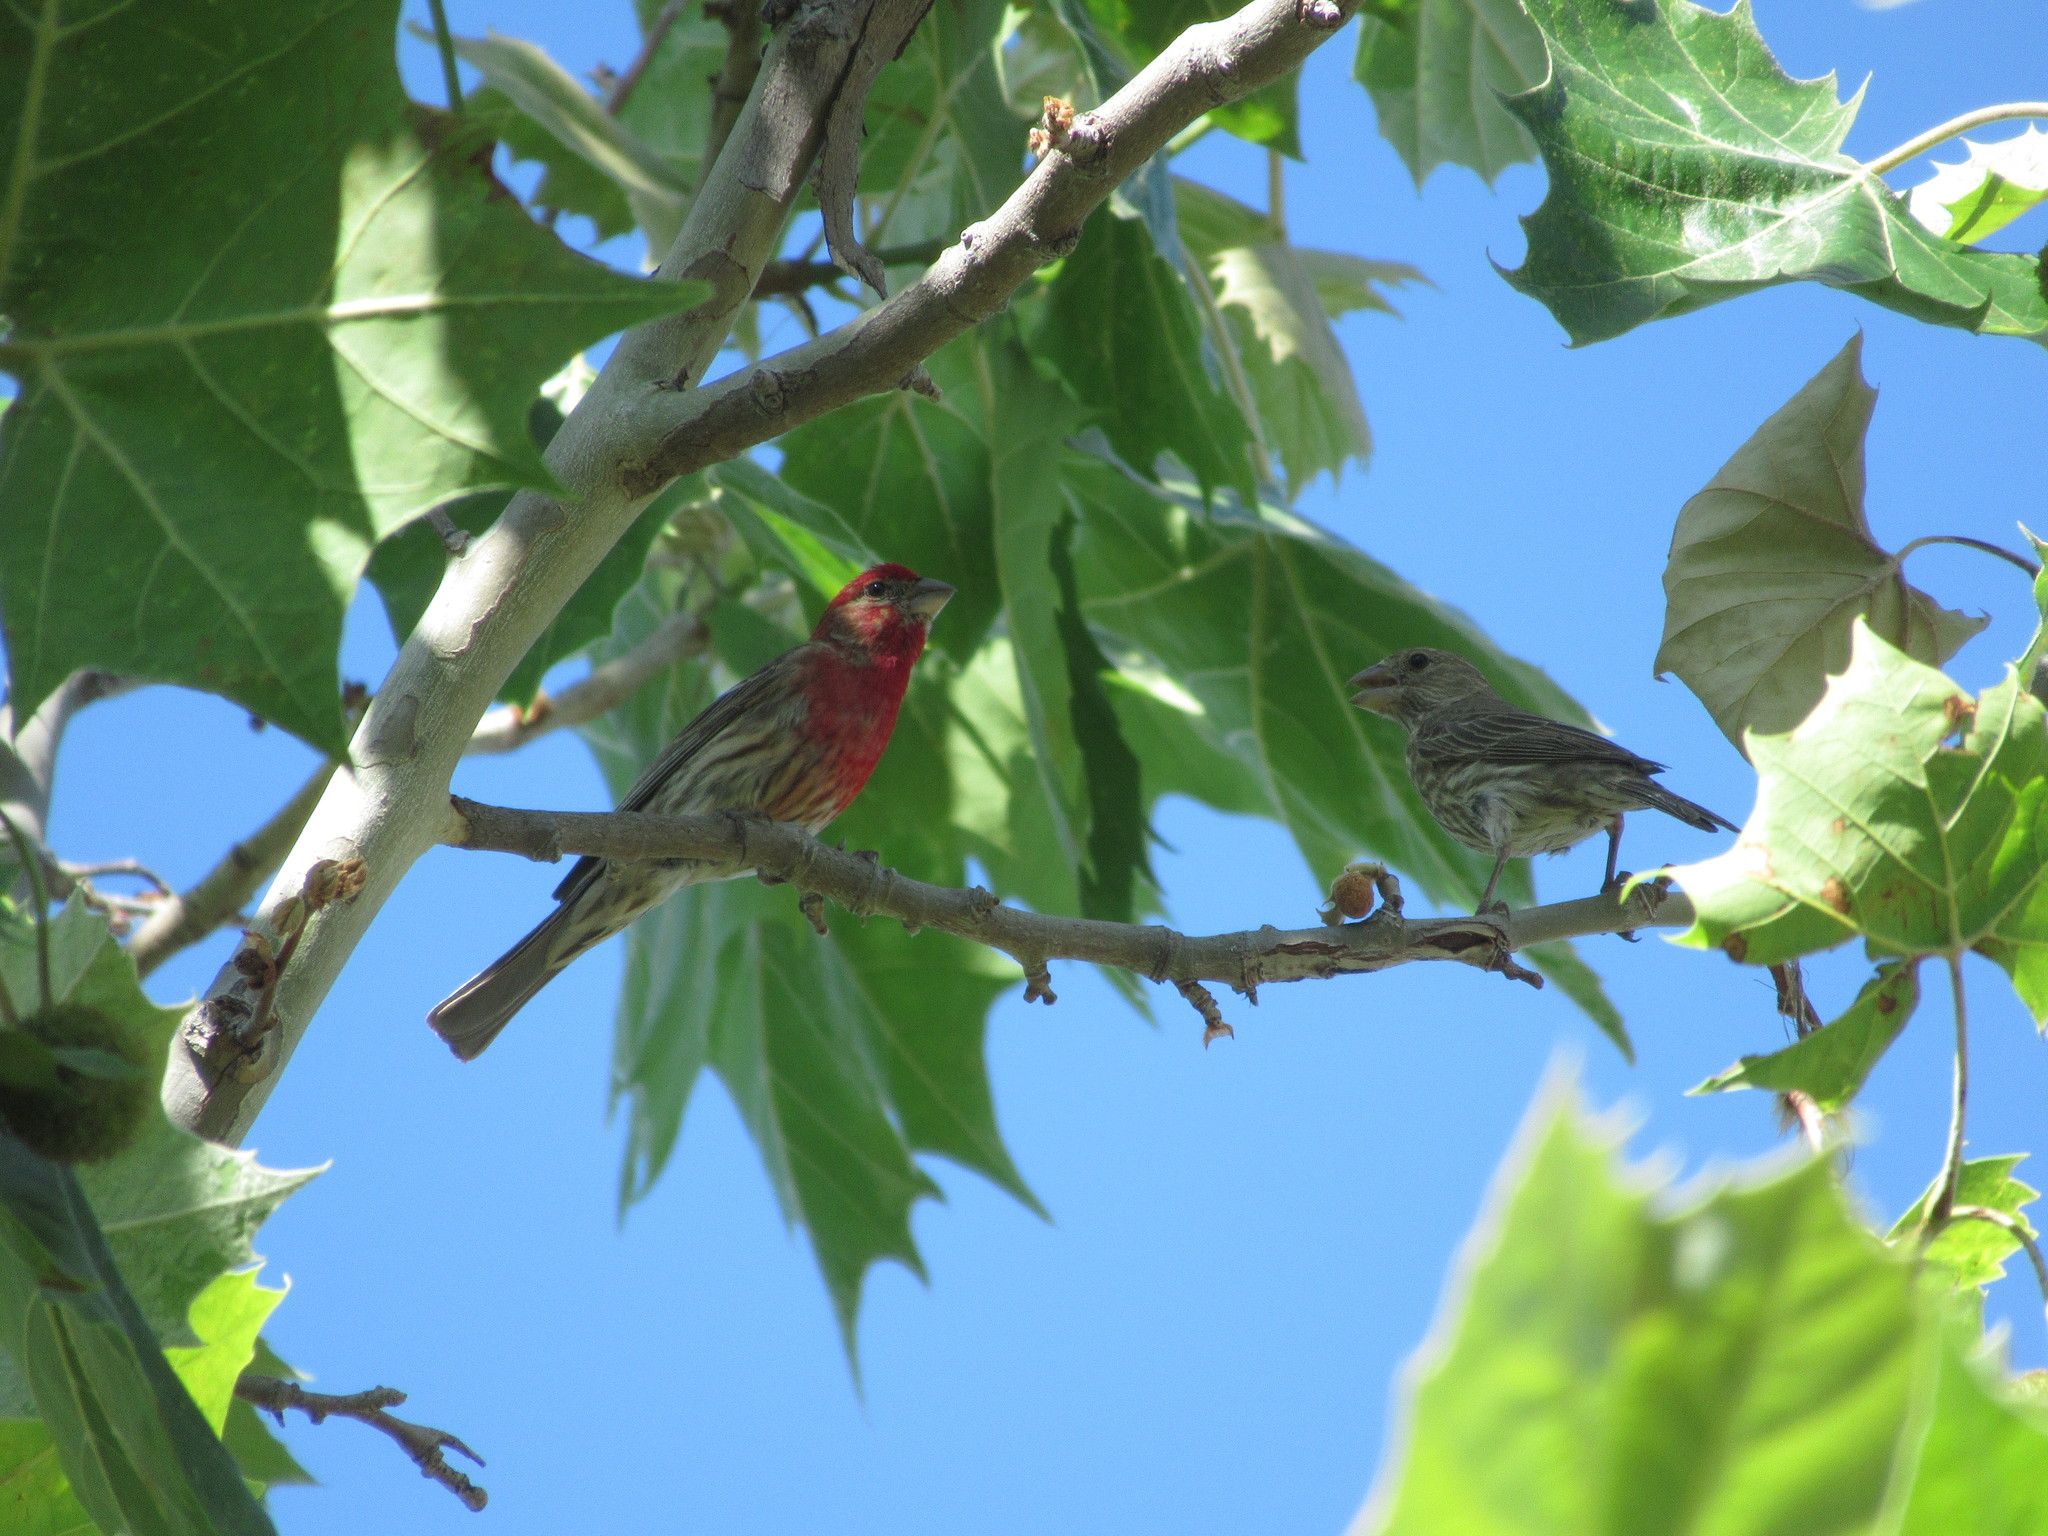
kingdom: Animalia
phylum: Chordata
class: Aves
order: Passeriformes
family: Fringillidae
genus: Haemorhous
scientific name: Haemorhous mexicanus
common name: House finch
